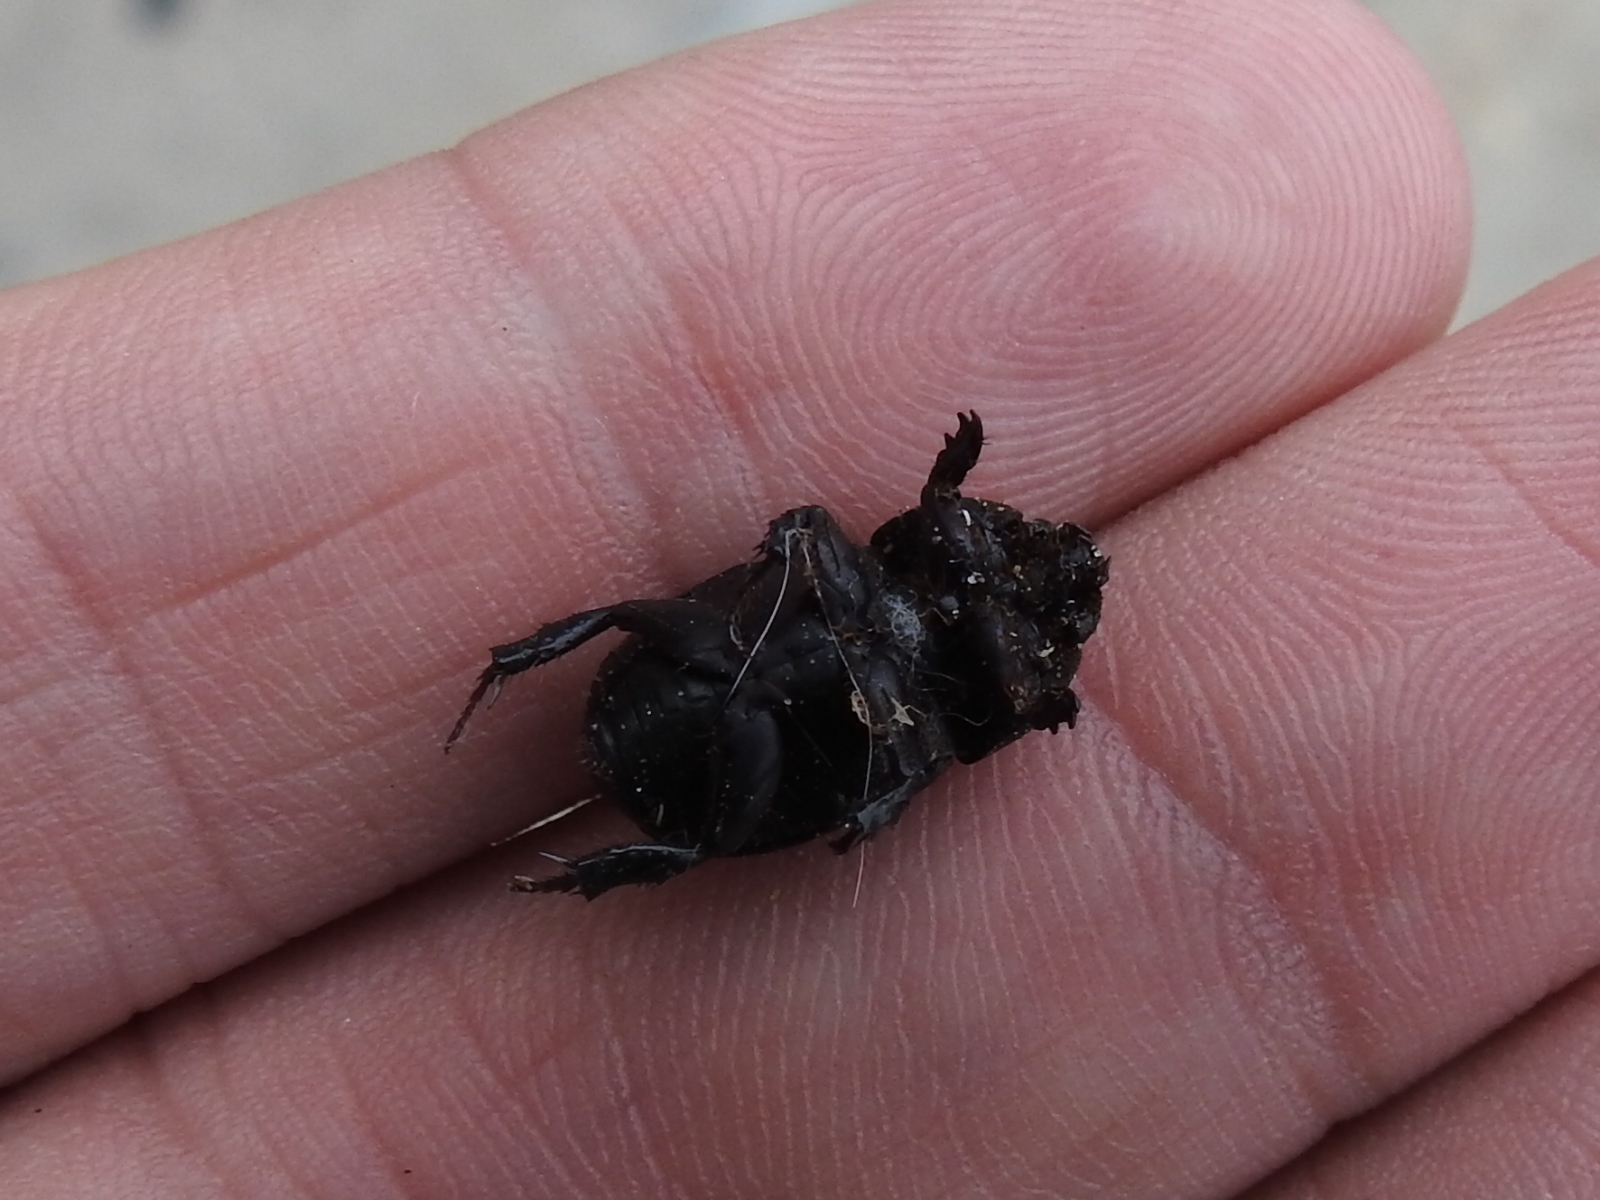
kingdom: Animalia
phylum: Arthropoda
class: Insecta
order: Coleoptera
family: Scarabaeidae
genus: Euetheola
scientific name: Euetheola humilis
